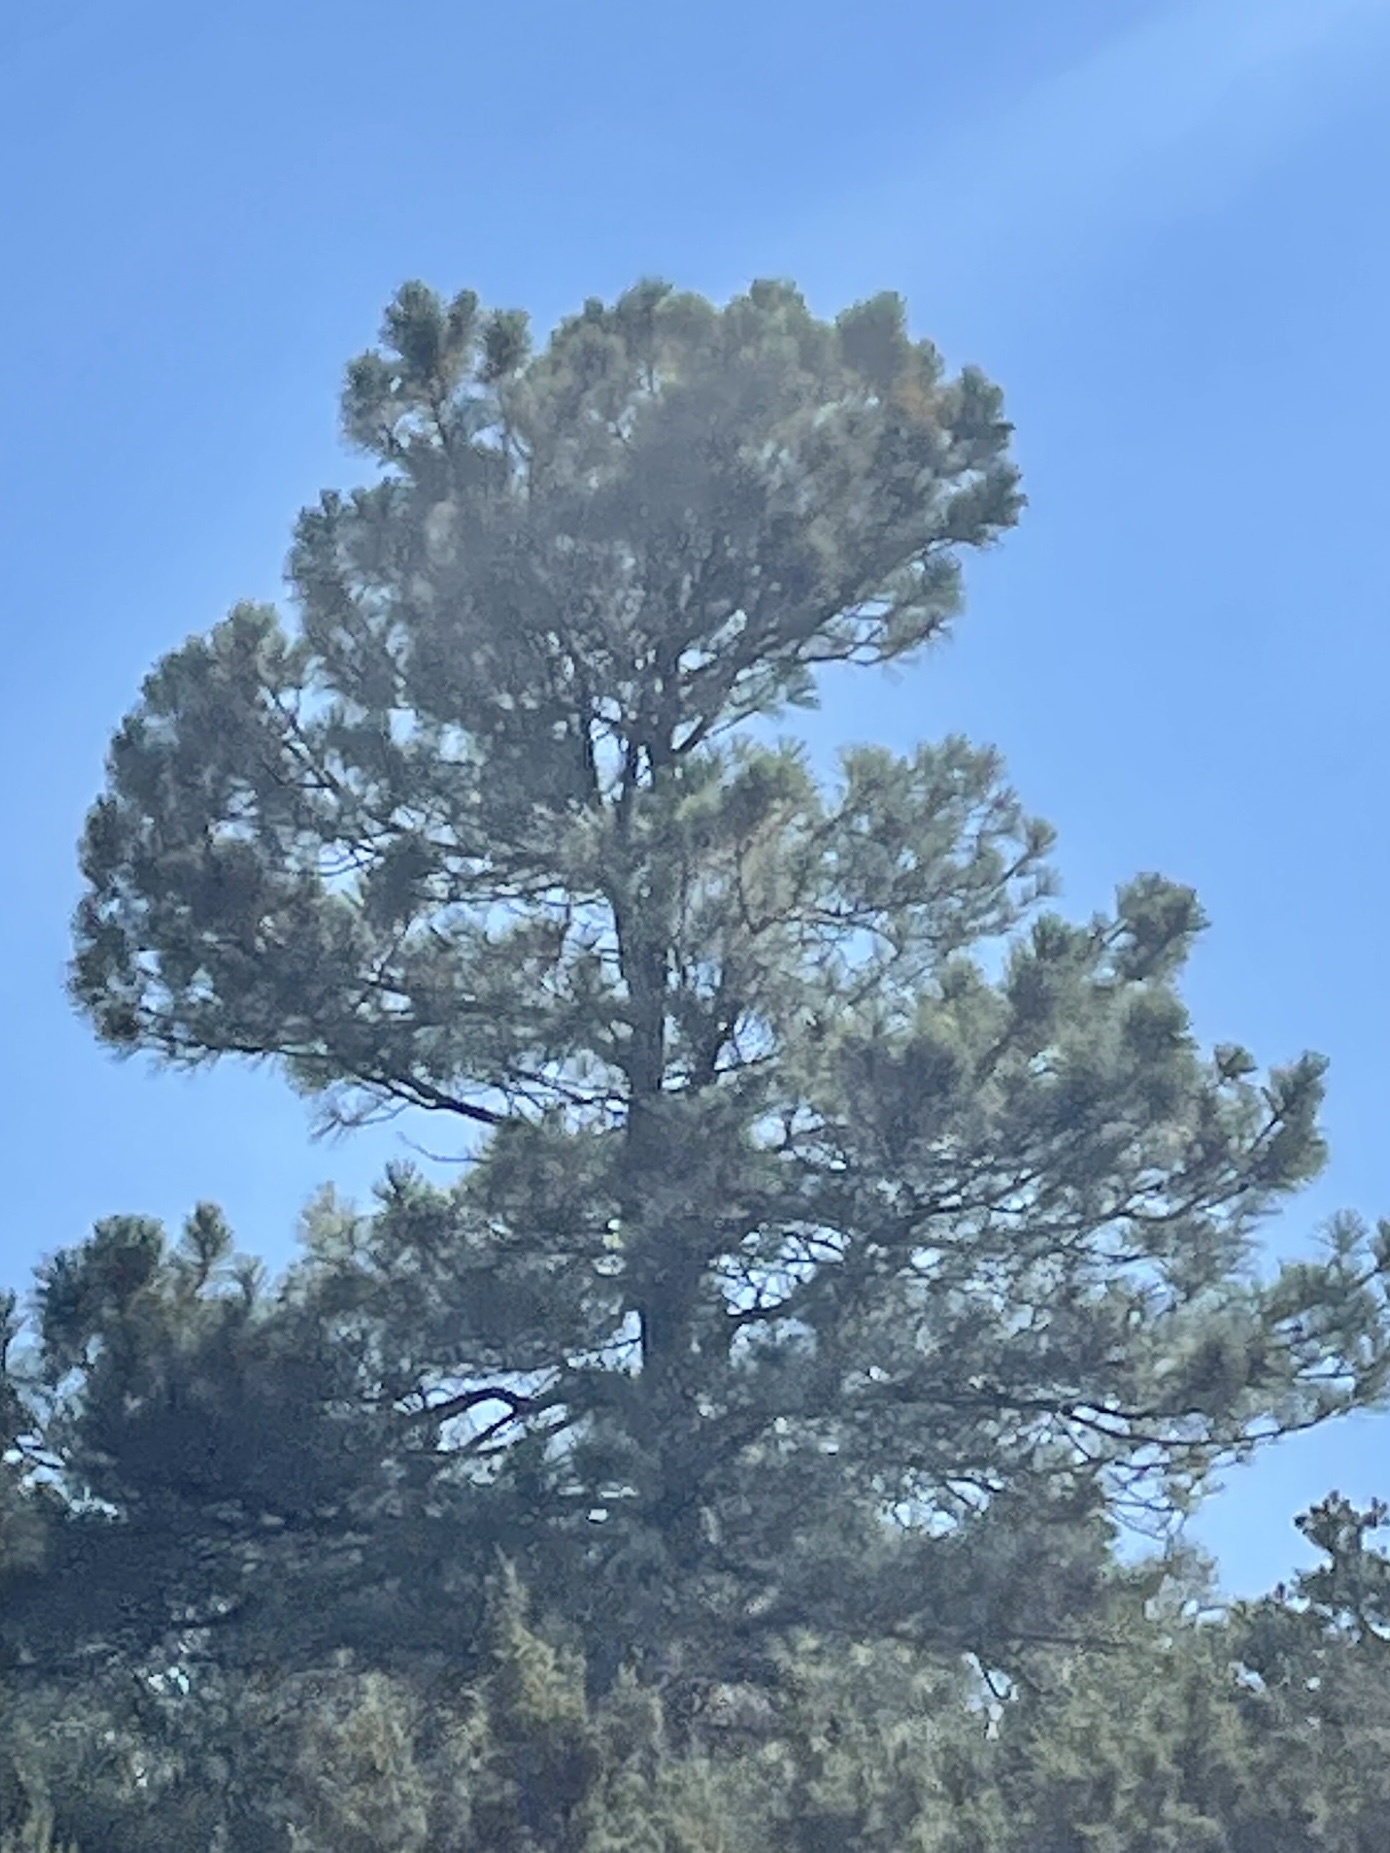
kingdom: Plantae
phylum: Tracheophyta
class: Pinopsida
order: Pinales
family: Pinaceae
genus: Pinus
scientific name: Pinus ponderosa
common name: Western yellow-pine
